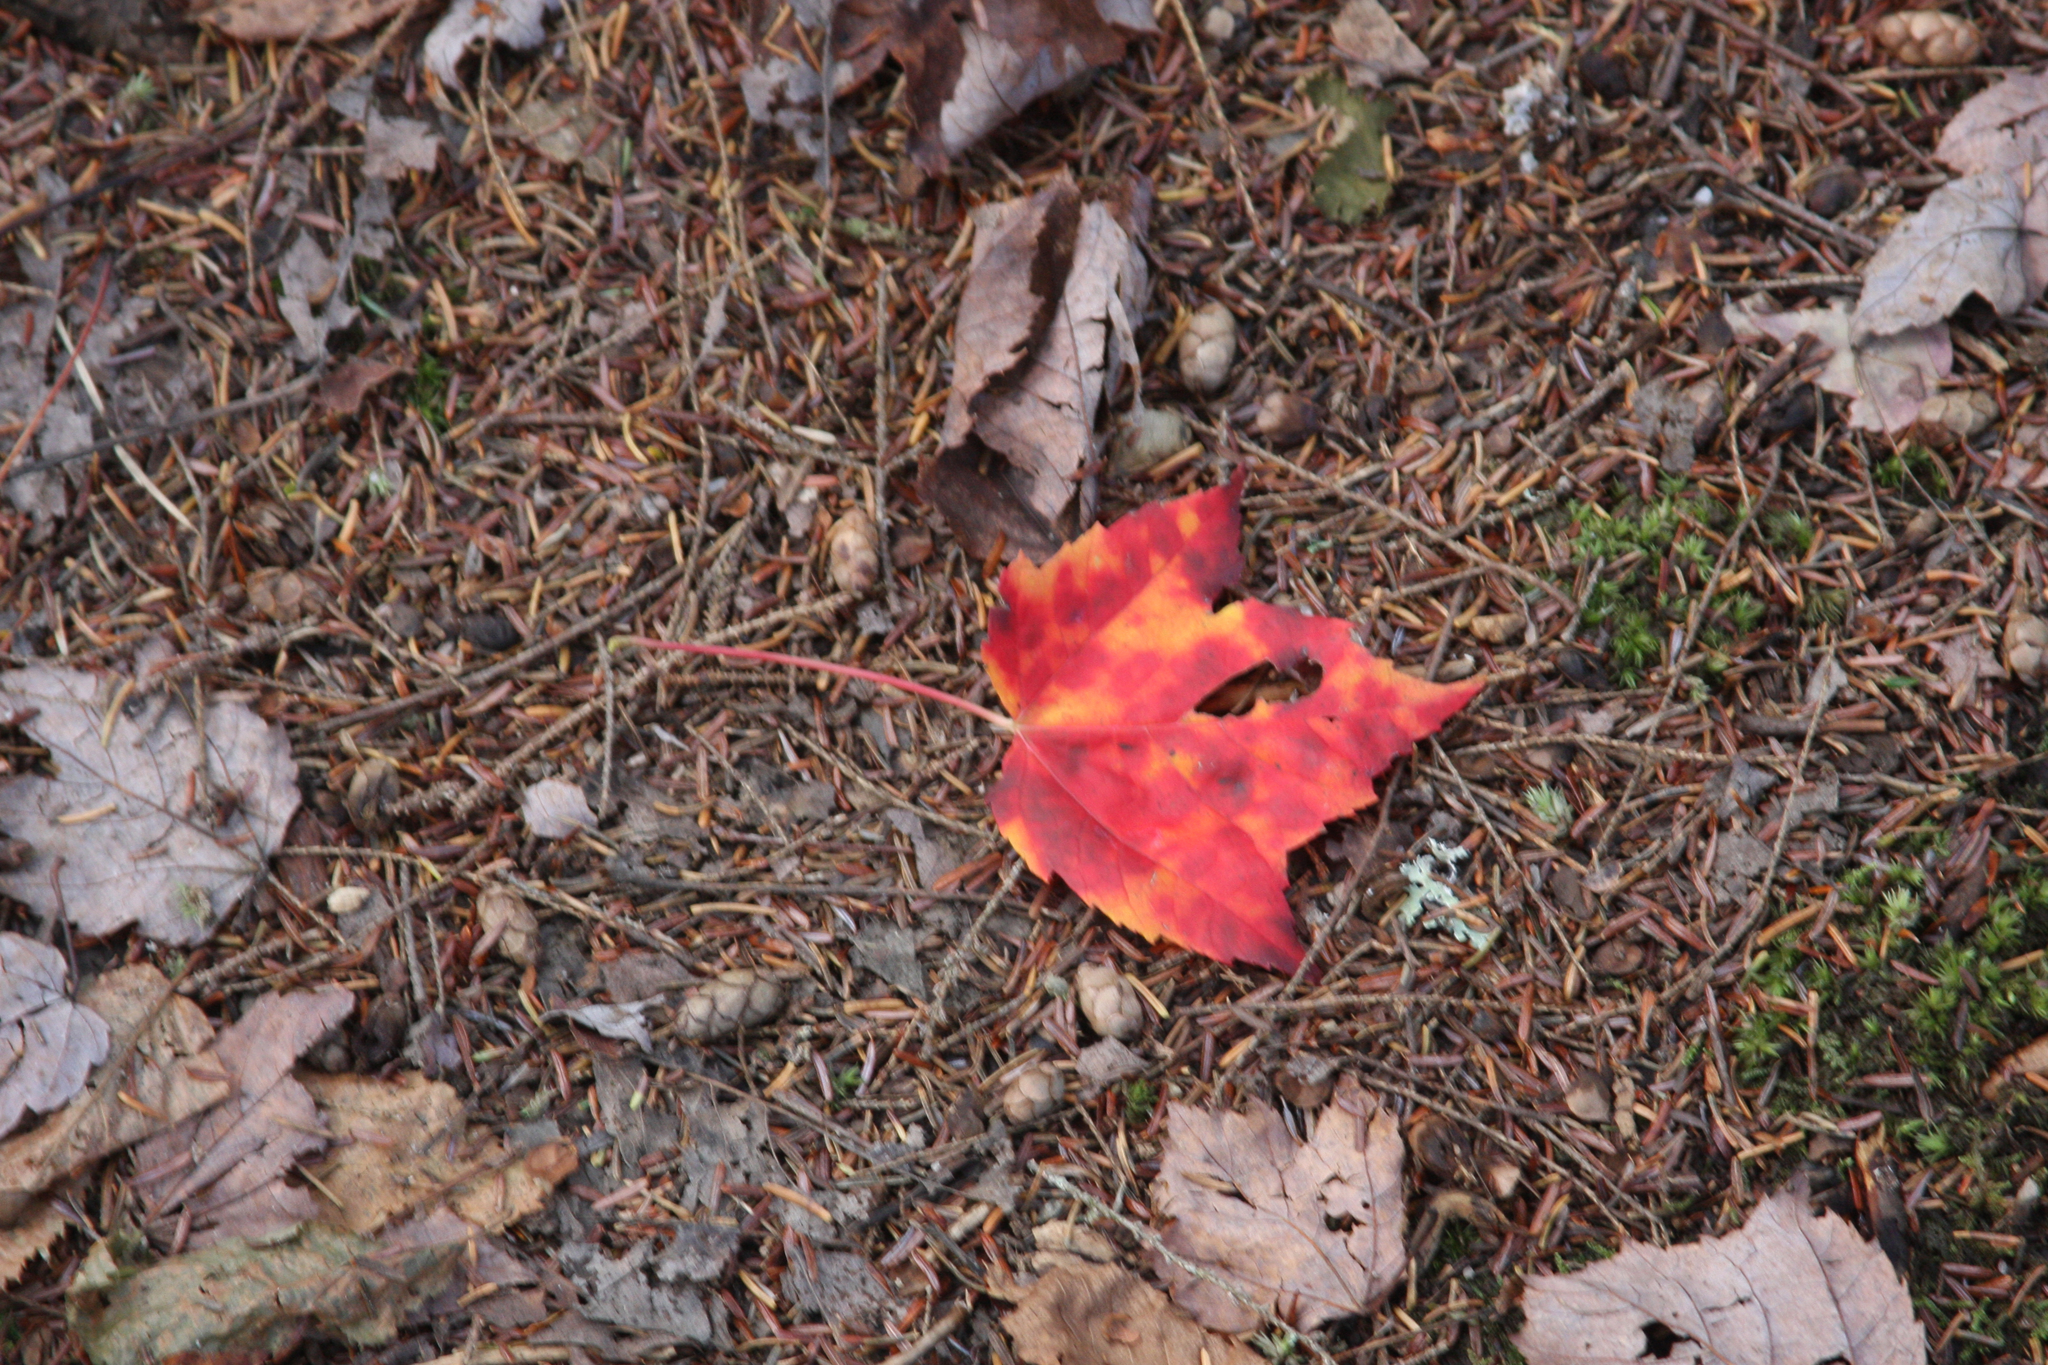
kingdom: Plantae
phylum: Tracheophyta
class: Magnoliopsida
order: Sapindales
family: Sapindaceae
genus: Acer
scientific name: Acer rubrum
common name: Red maple
